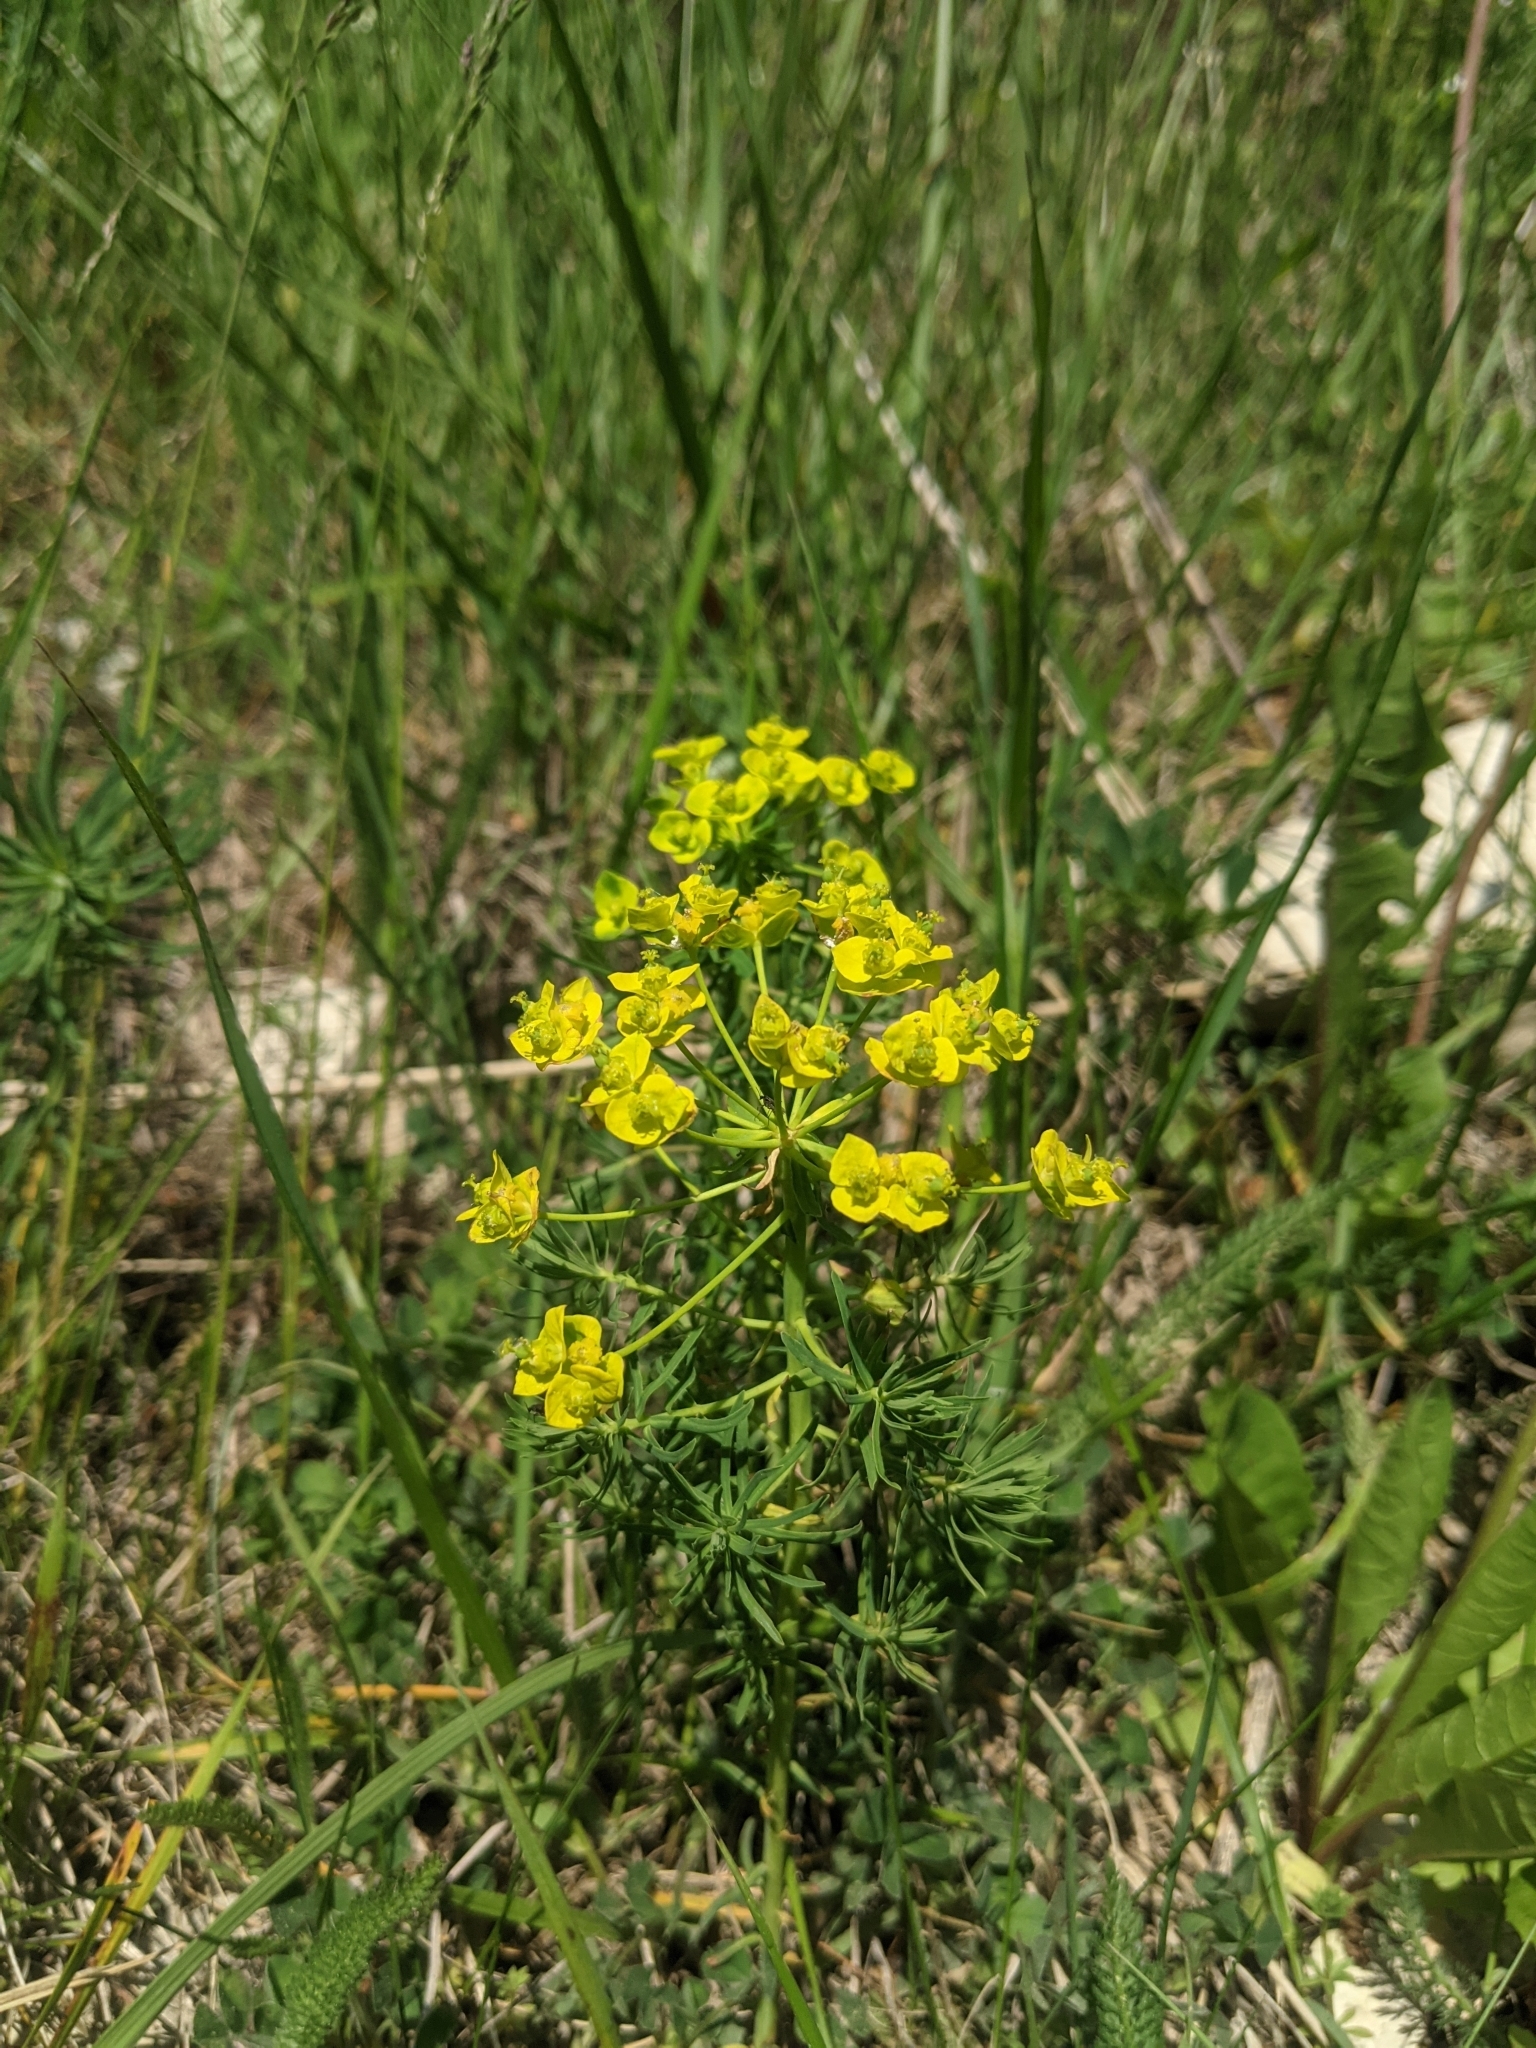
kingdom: Plantae
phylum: Tracheophyta
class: Magnoliopsida
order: Malpighiales
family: Euphorbiaceae
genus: Euphorbia
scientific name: Euphorbia cyparissias
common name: Cypress spurge
